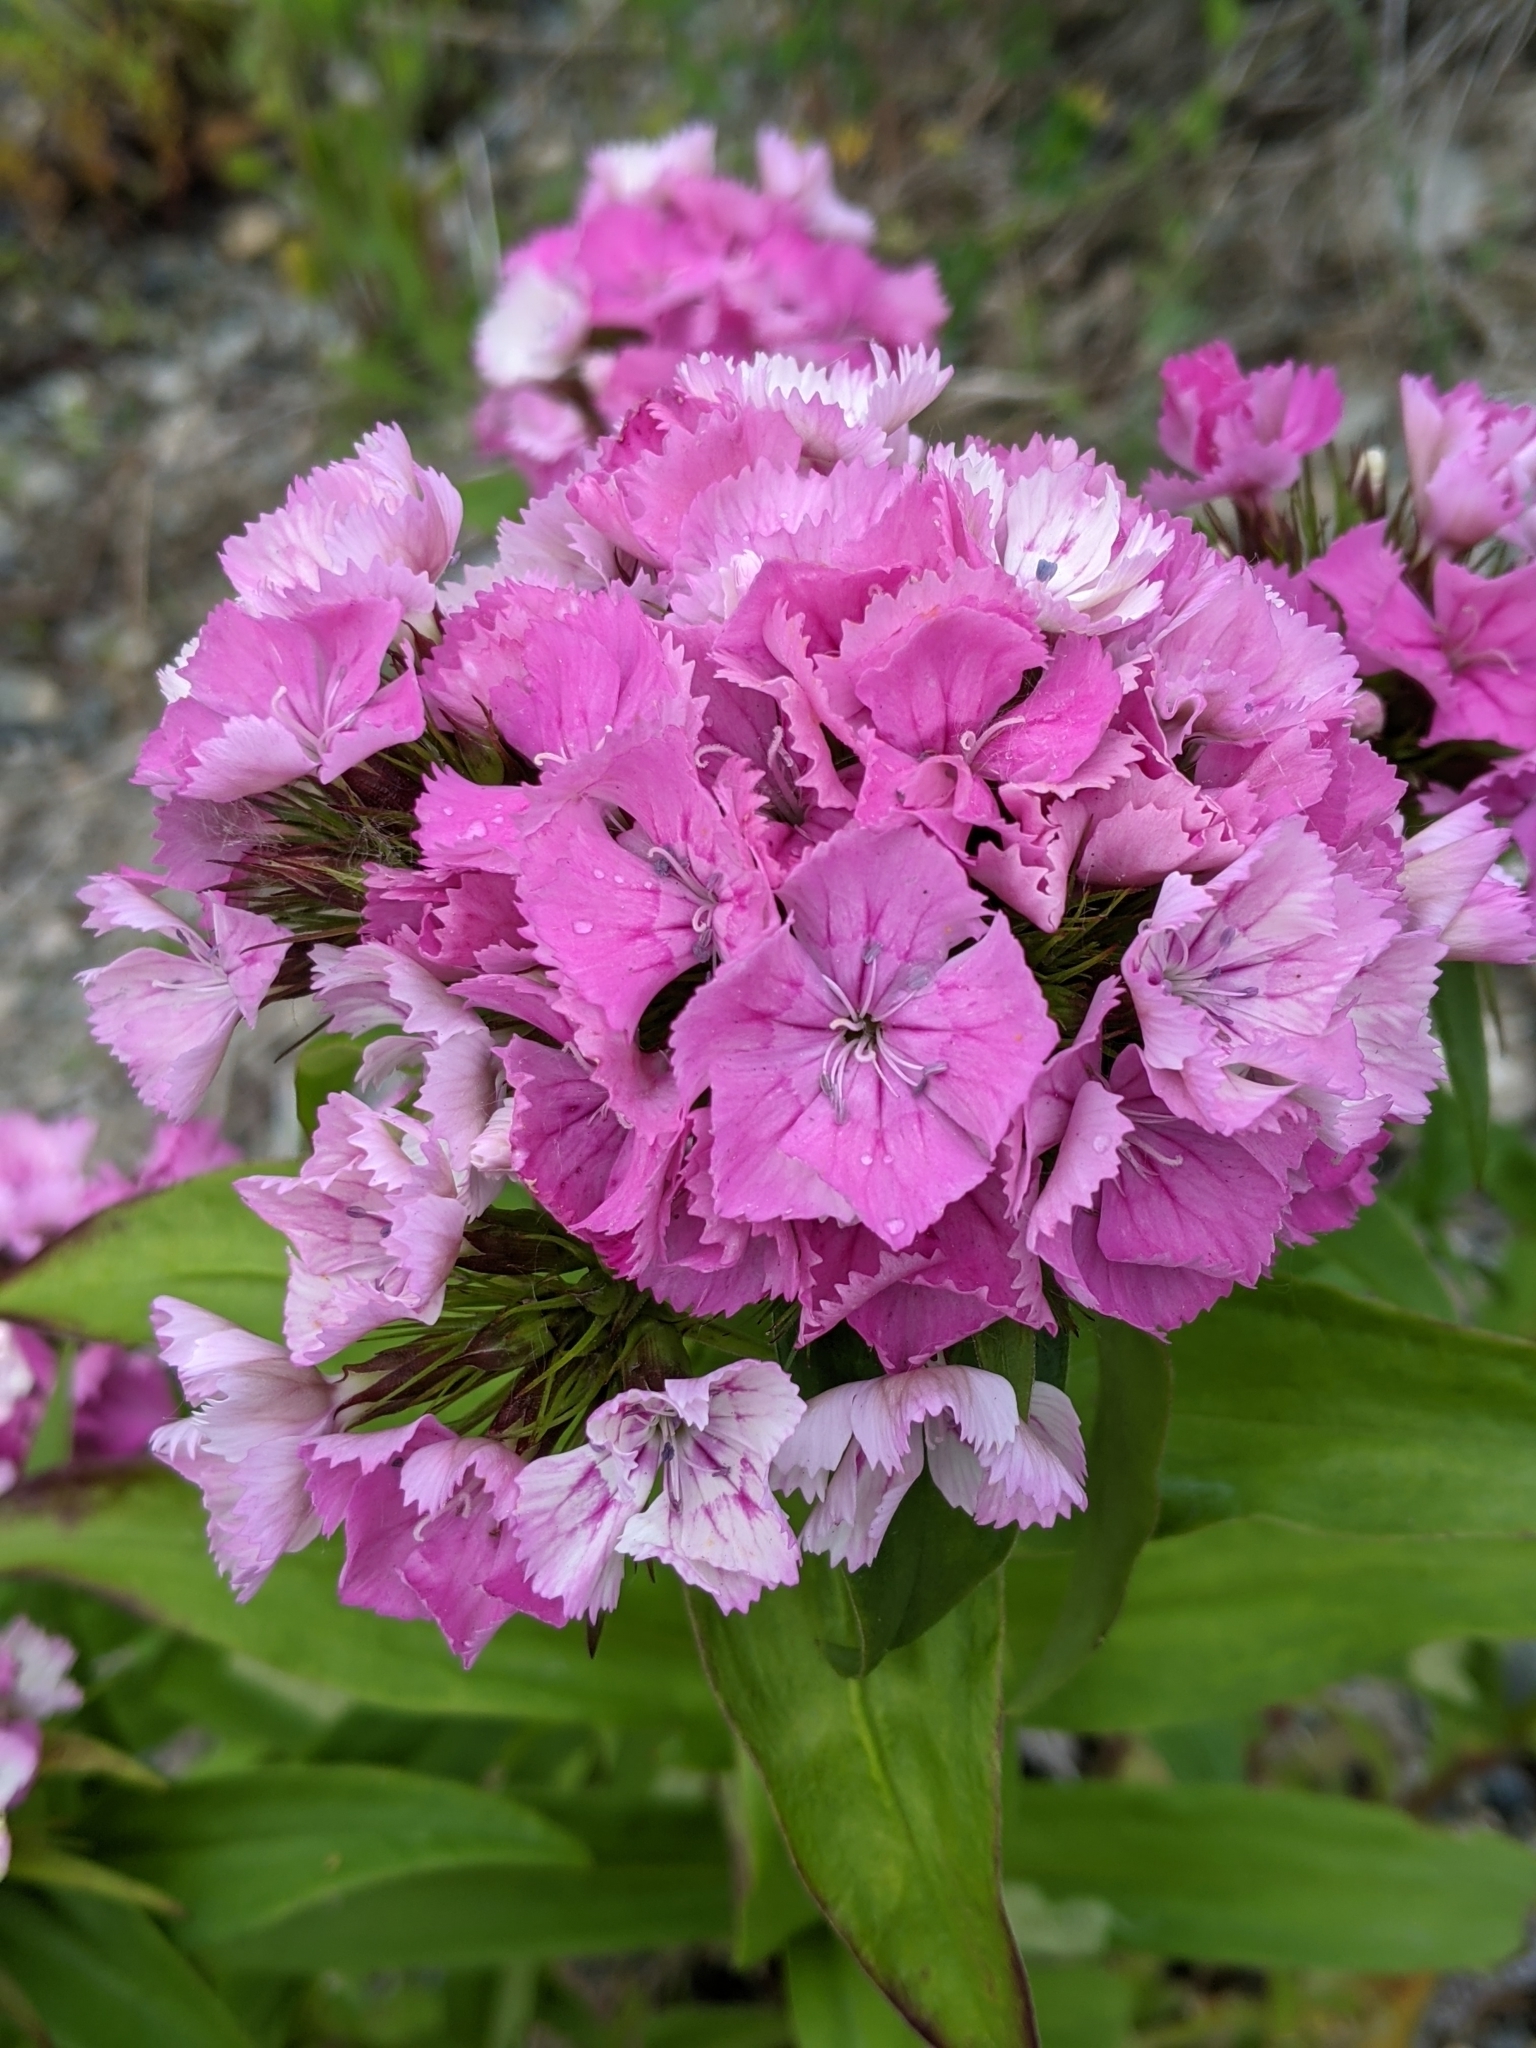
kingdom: Plantae
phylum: Tracheophyta
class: Magnoliopsida
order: Caryophyllales
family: Caryophyllaceae
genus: Dianthus
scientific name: Dianthus barbatus
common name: Sweet-william
